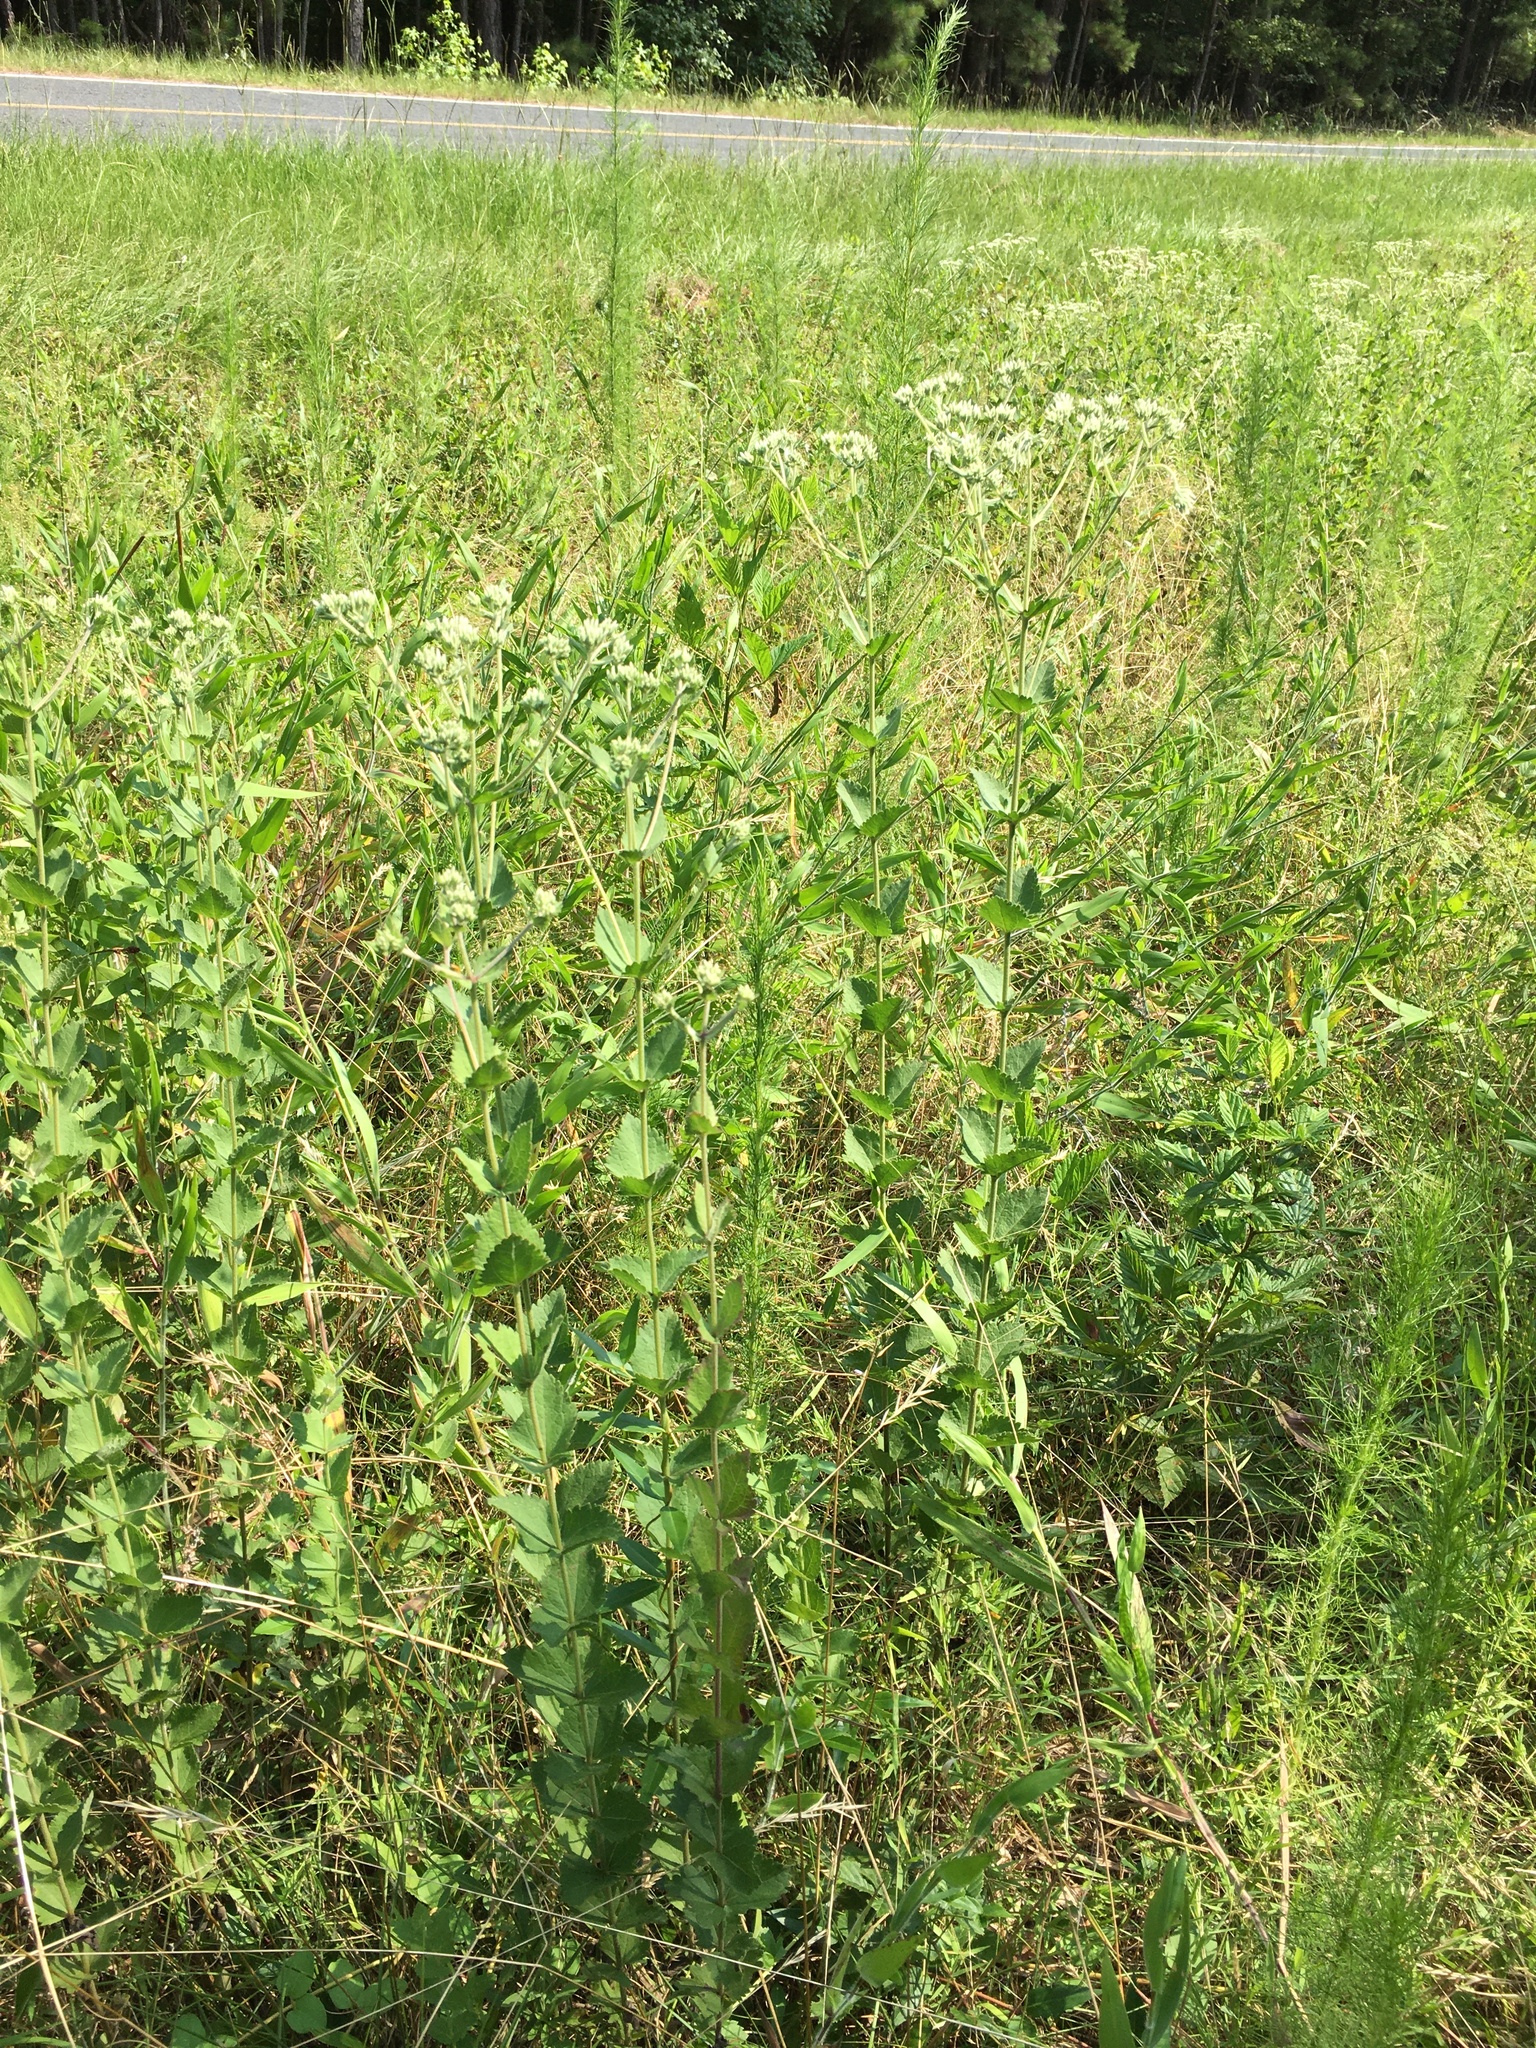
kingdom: Plantae
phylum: Tracheophyta
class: Magnoliopsida
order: Asterales
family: Asteraceae
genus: Eupatorium
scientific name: Eupatorium rotundifolium
